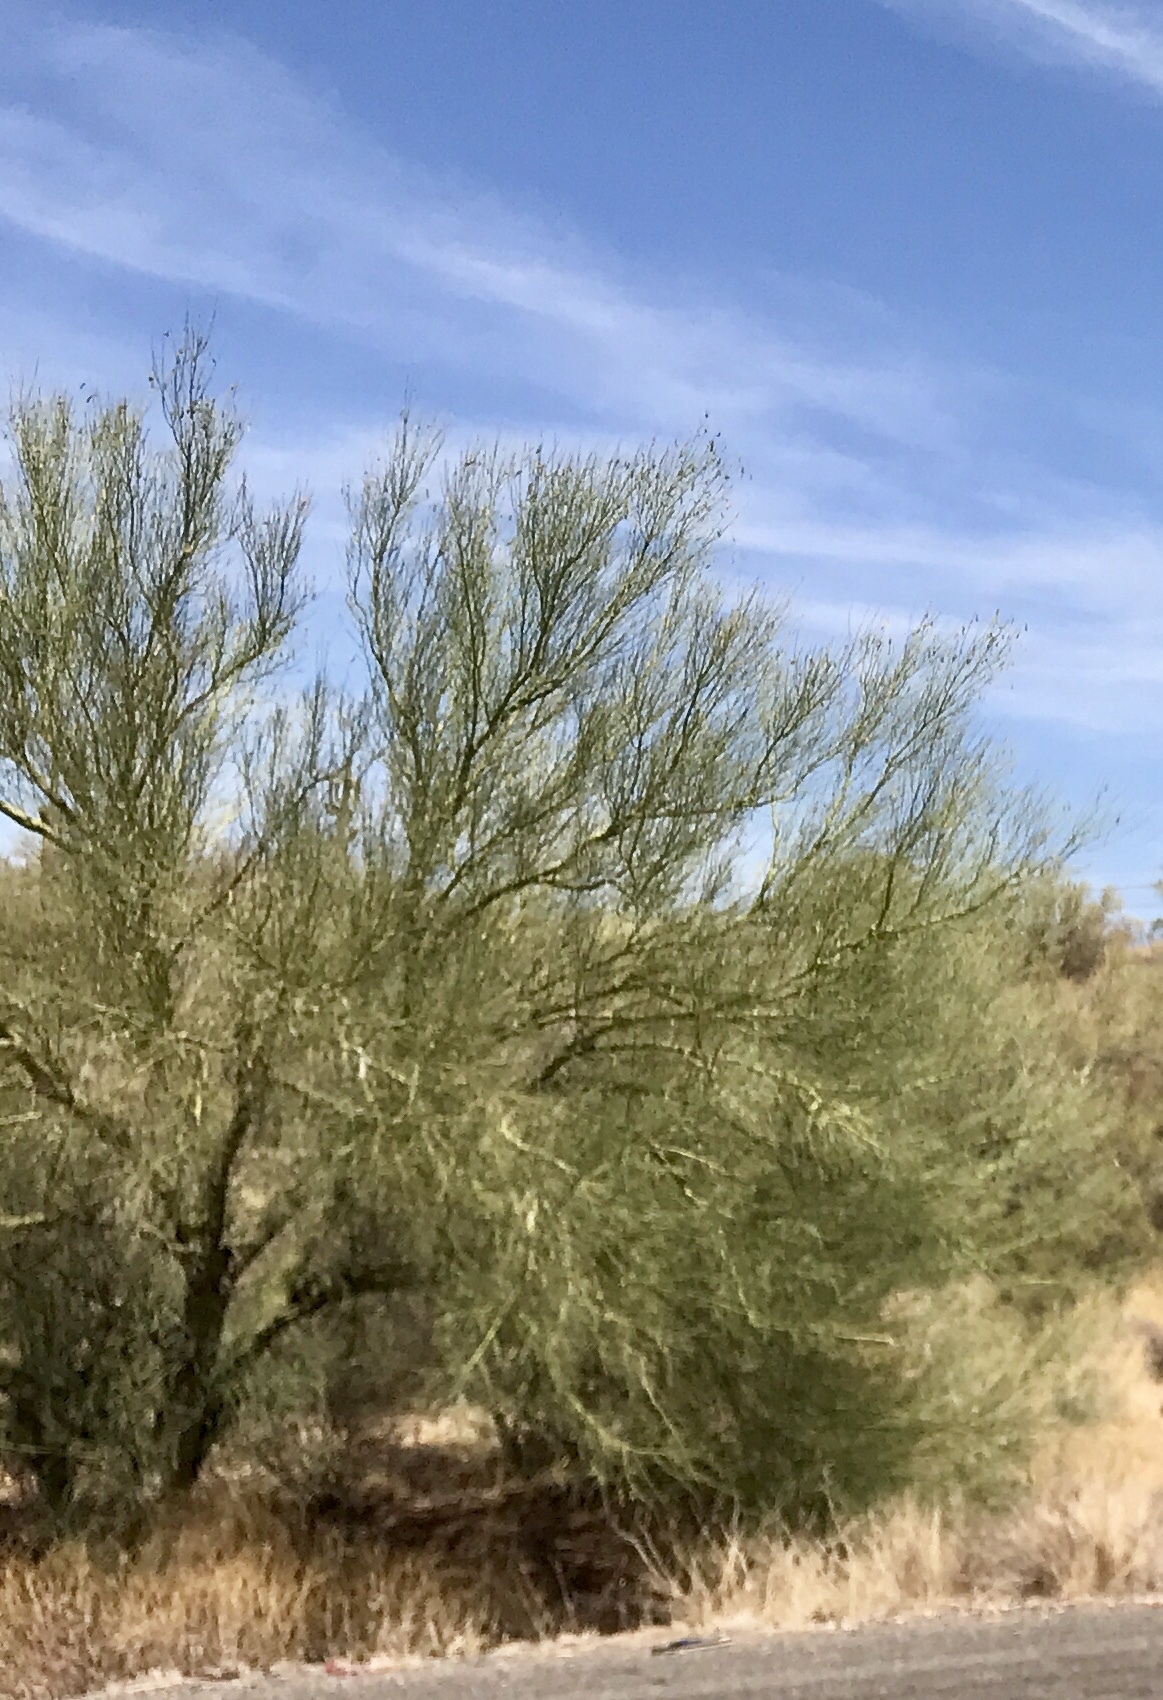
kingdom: Plantae
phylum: Tracheophyta
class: Magnoliopsida
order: Fabales
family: Fabaceae
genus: Parkinsonia
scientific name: Parkinsonia microphylla
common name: Yellow paloverde
